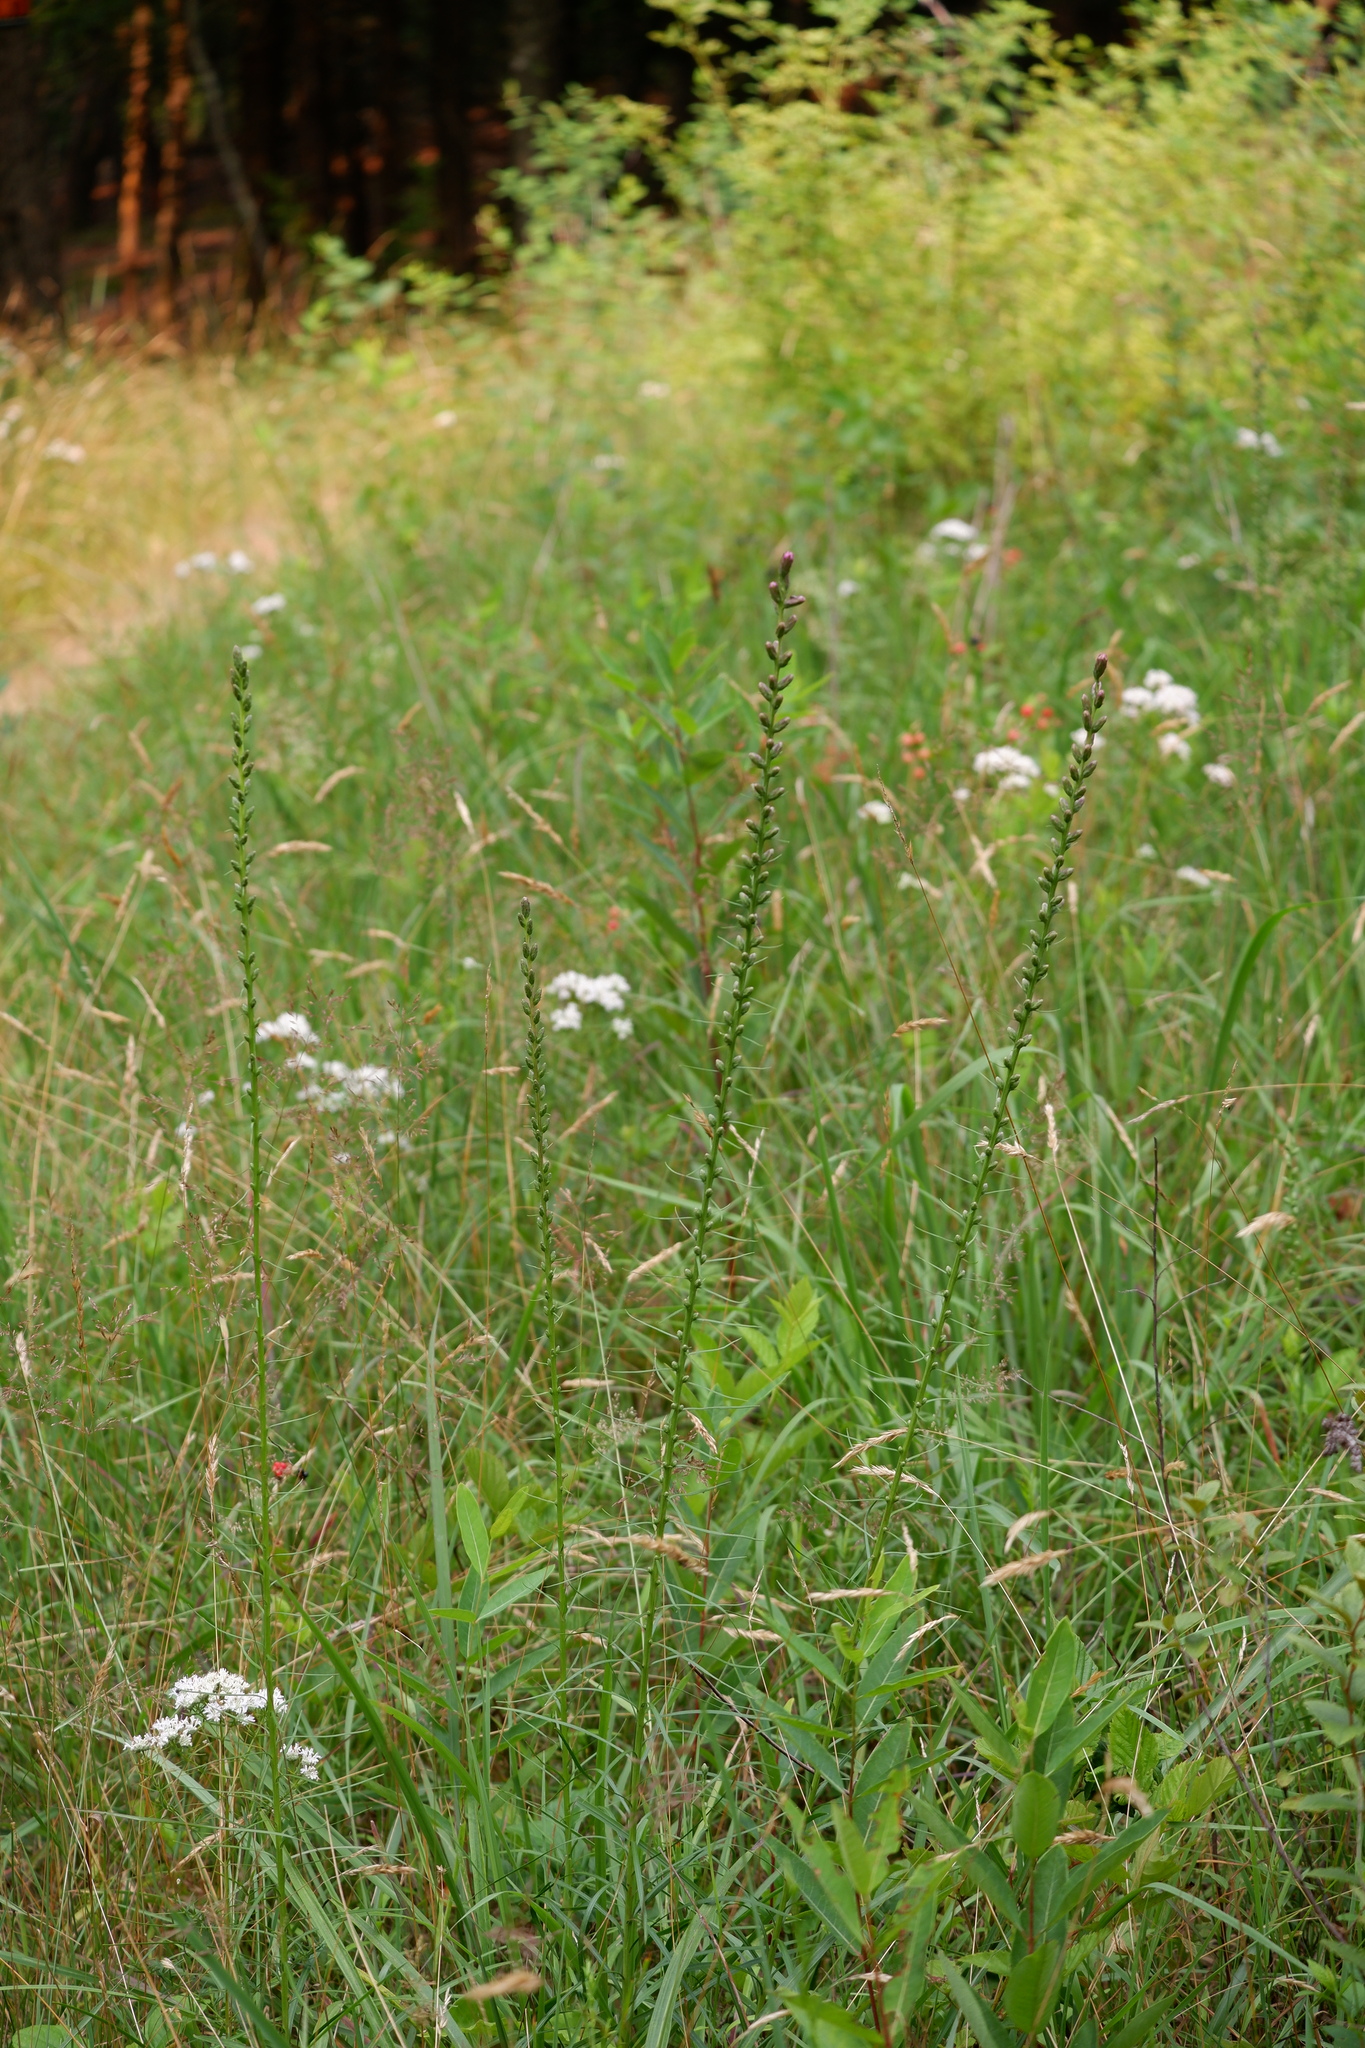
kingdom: Plantae
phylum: Tracheophyta
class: Magnoliopsida
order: Asterales
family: Asteraceae
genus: Liatris
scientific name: Liatris spicata
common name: Florist gayfeather
